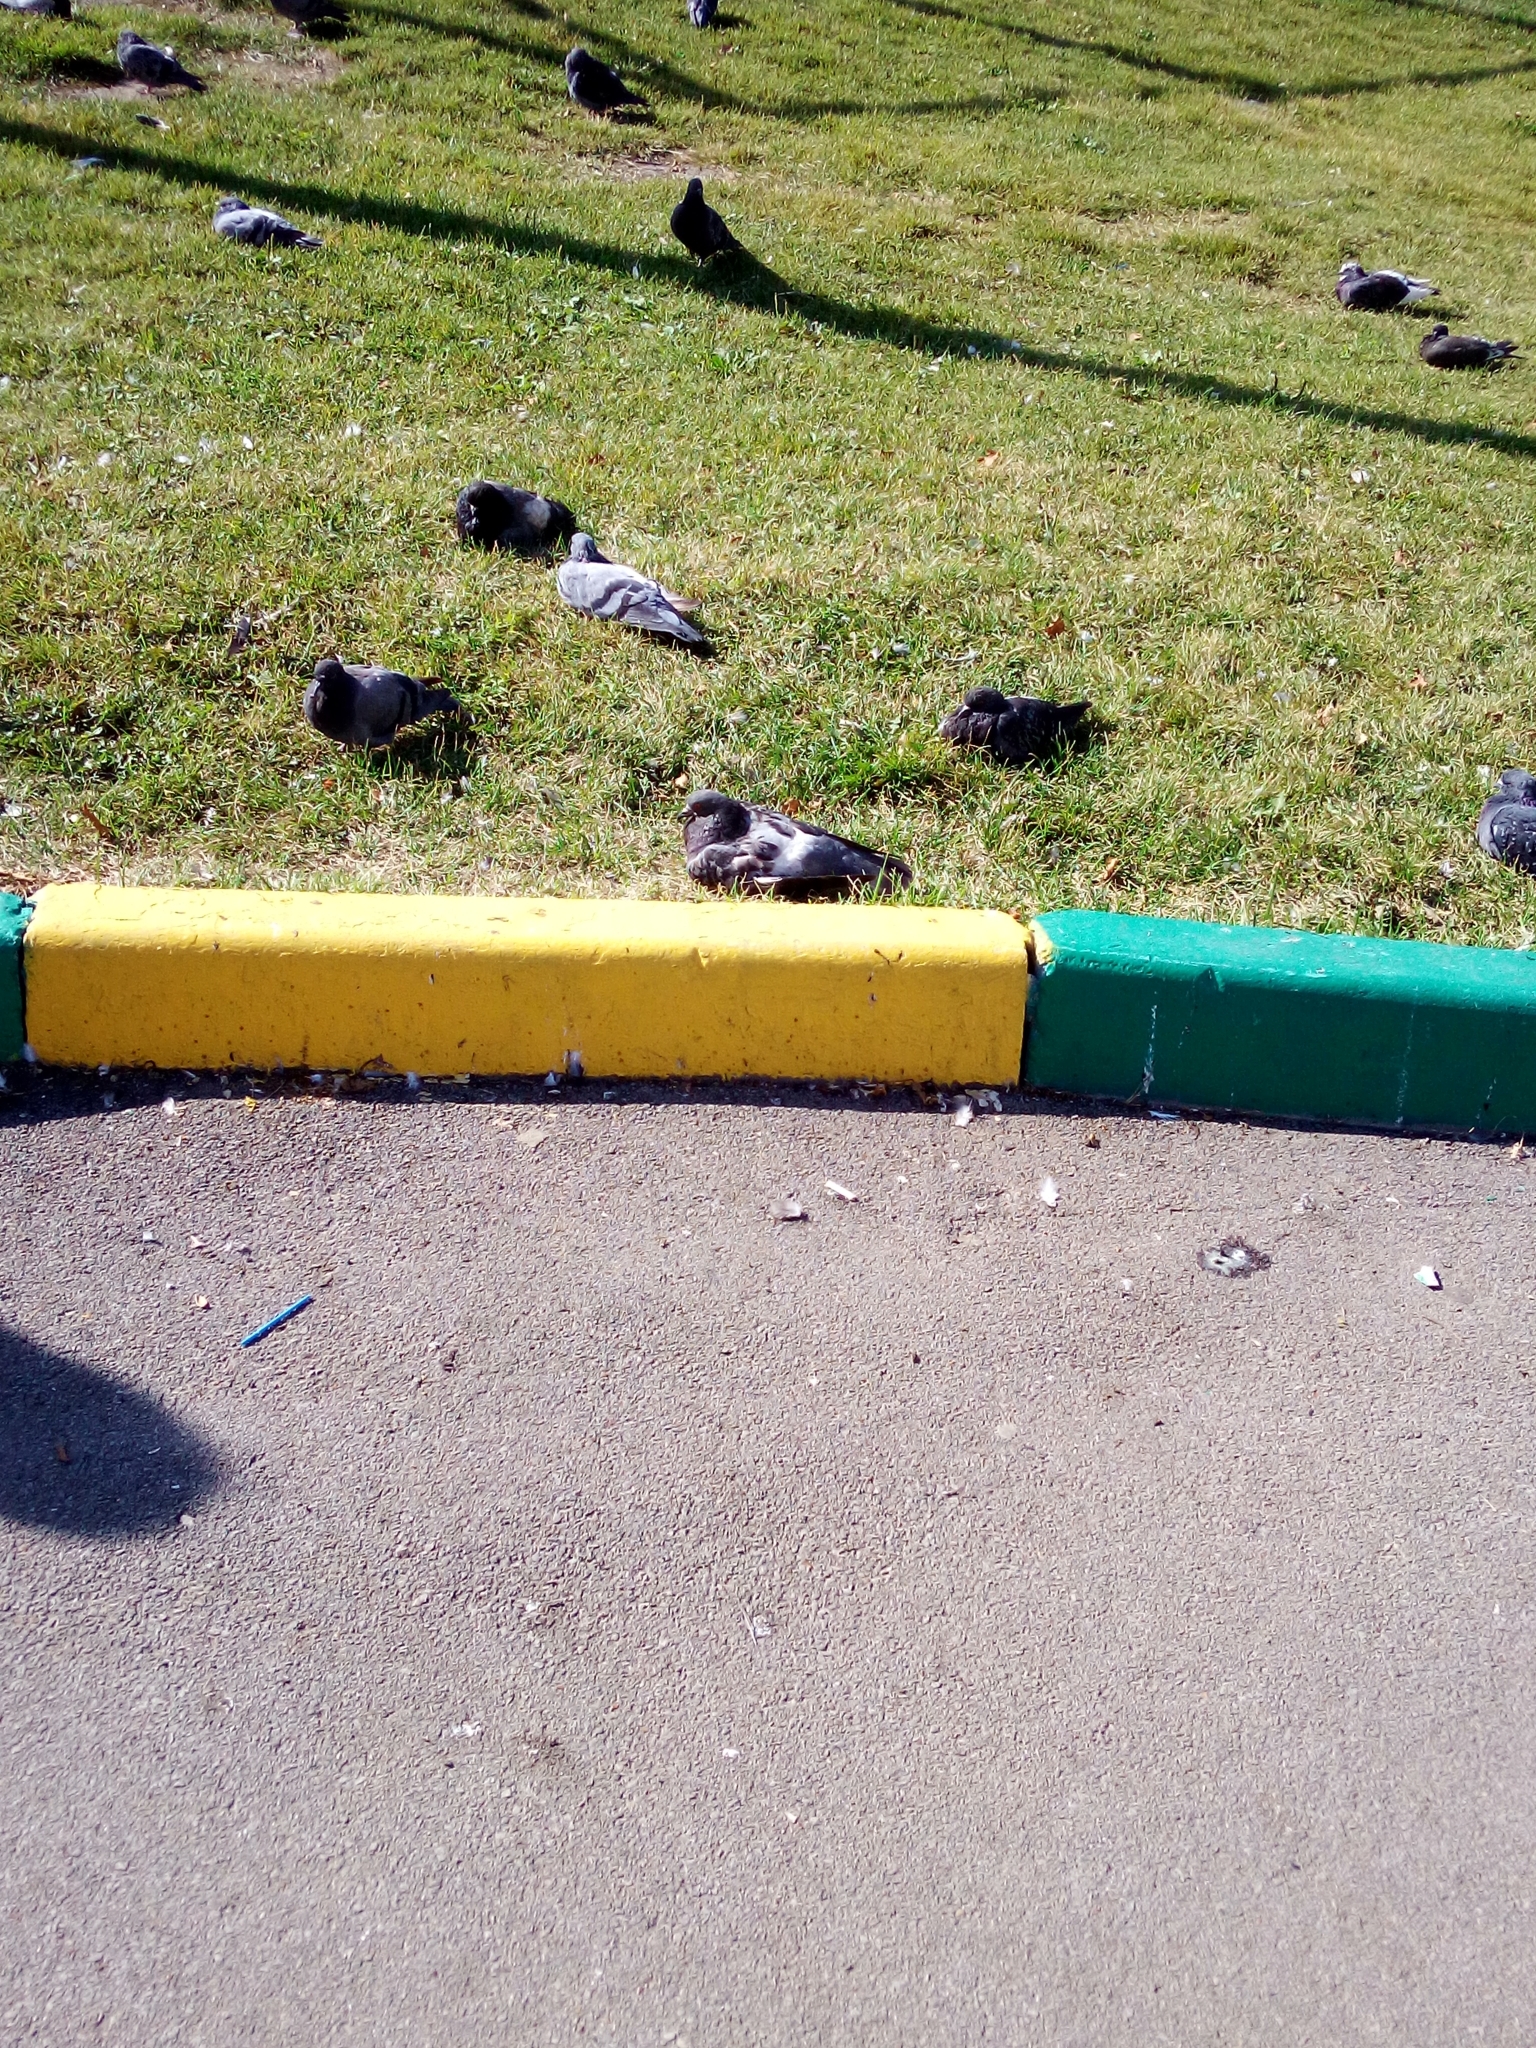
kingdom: Animalia
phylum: Chordata
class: Aves
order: Columbiformes
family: Columbidae
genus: Columba
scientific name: Columba livia
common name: Rock pigeon
